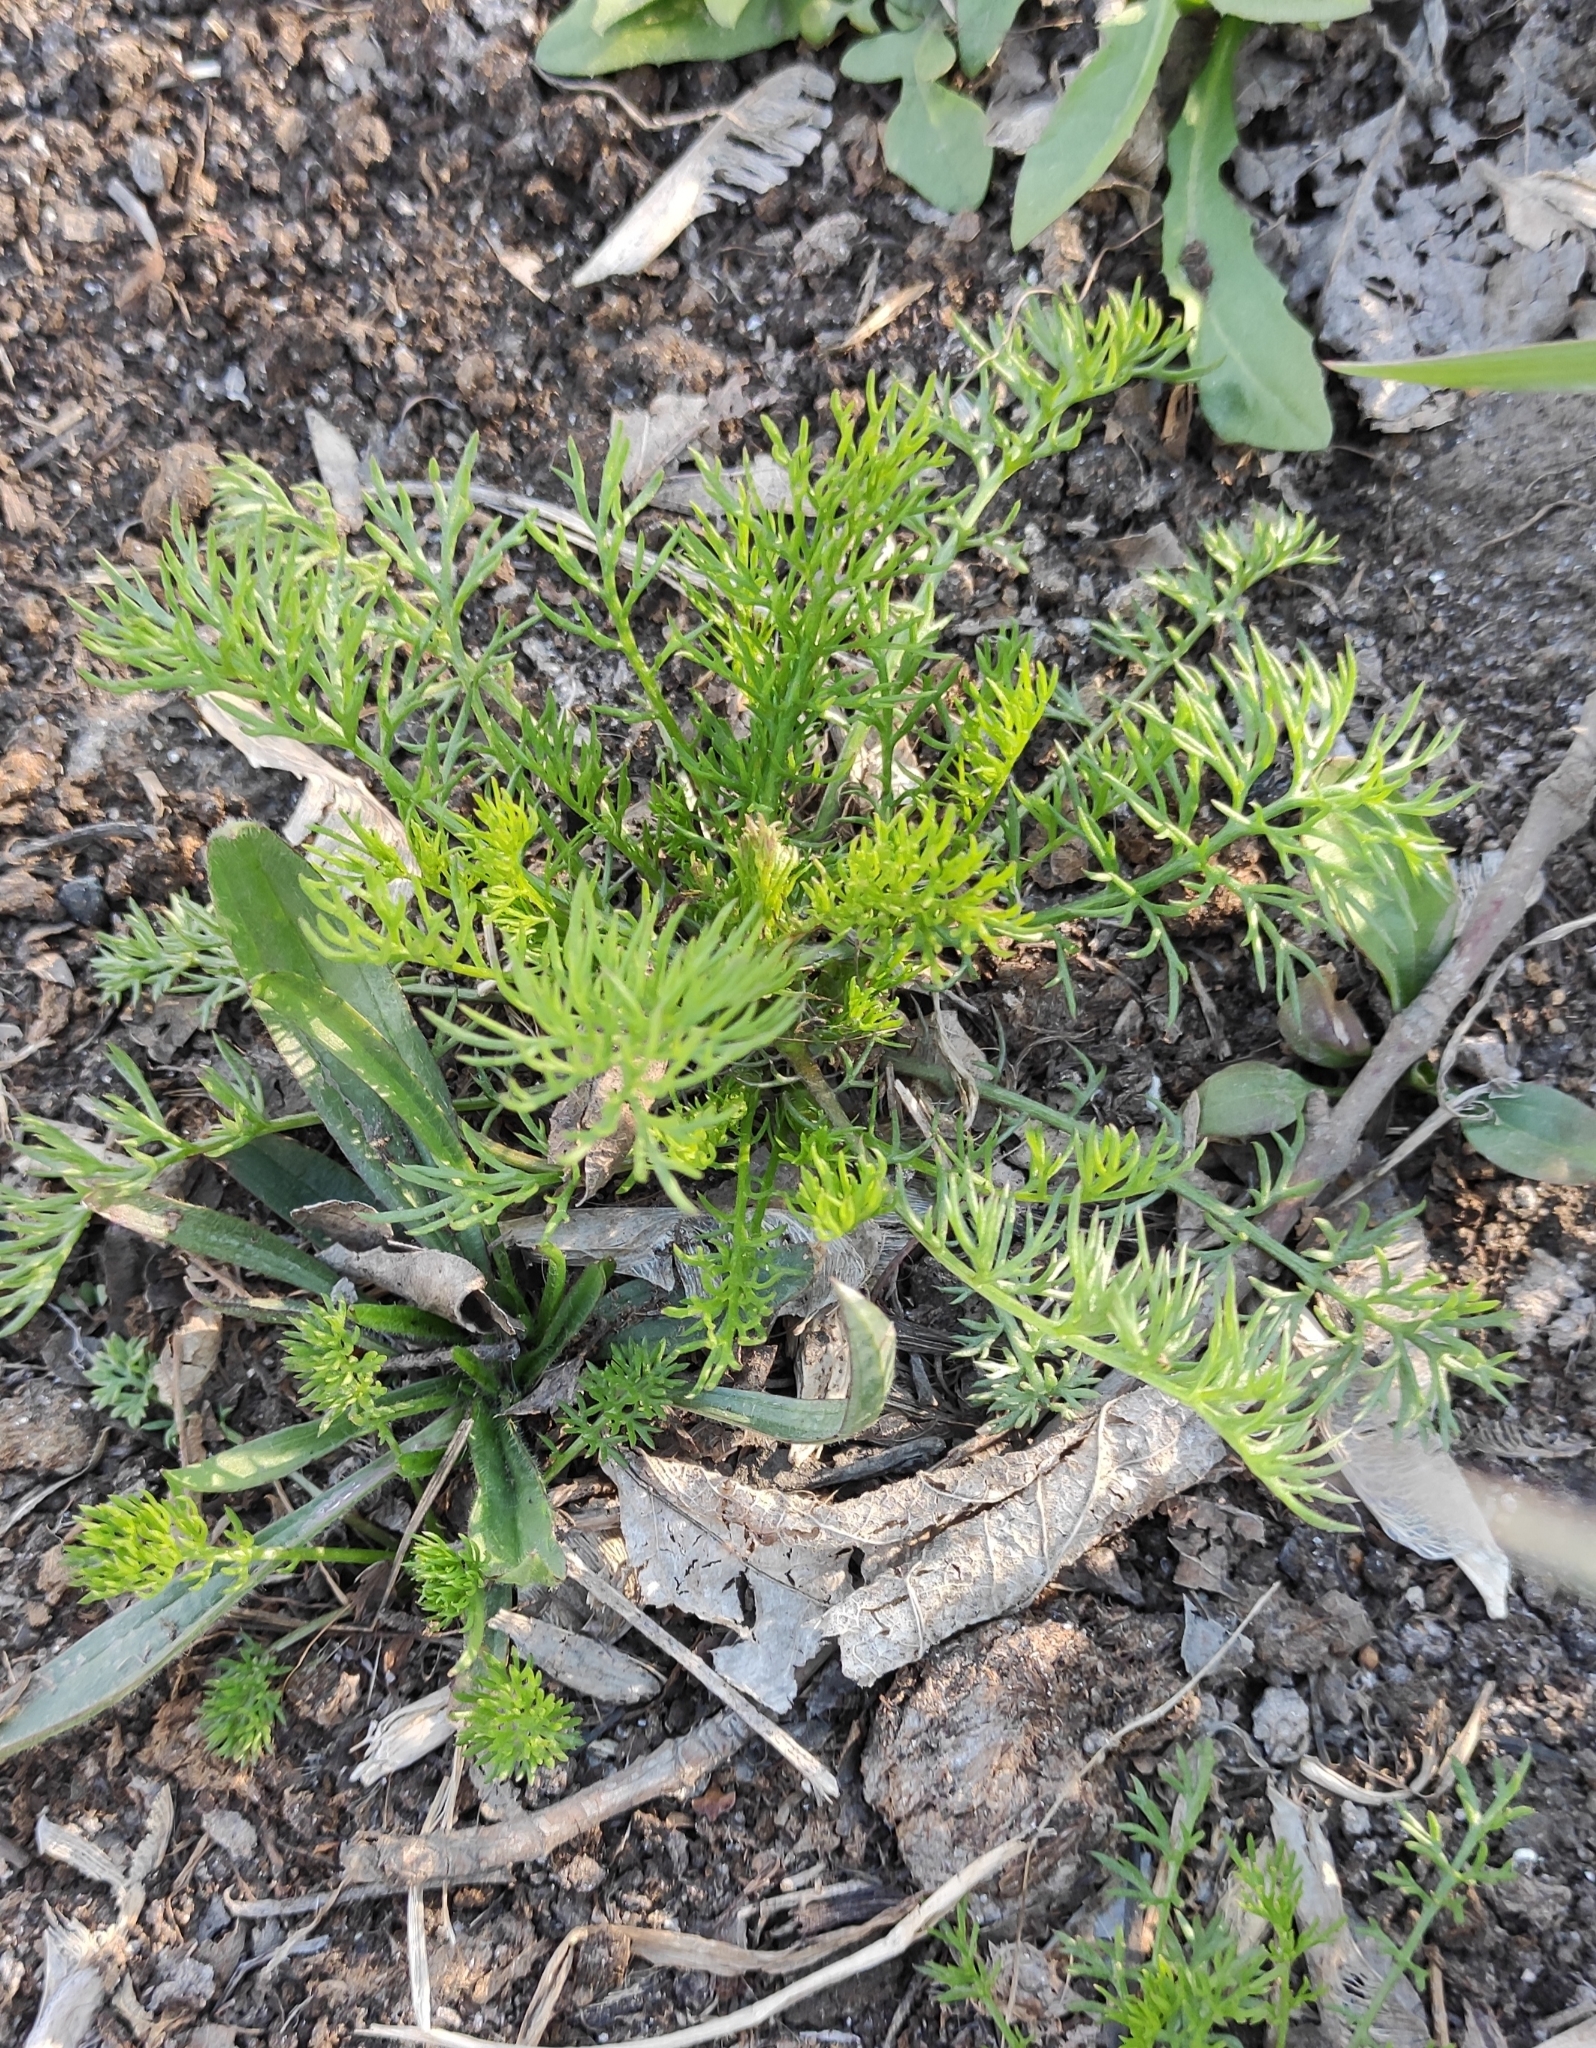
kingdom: Plantae
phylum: Tracheophyta
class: Magnoliopsida
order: Asterales
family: Asteraceae
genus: Tripleurospermum
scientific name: Tripleurospermum inodorum
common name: Scentless mayweed
